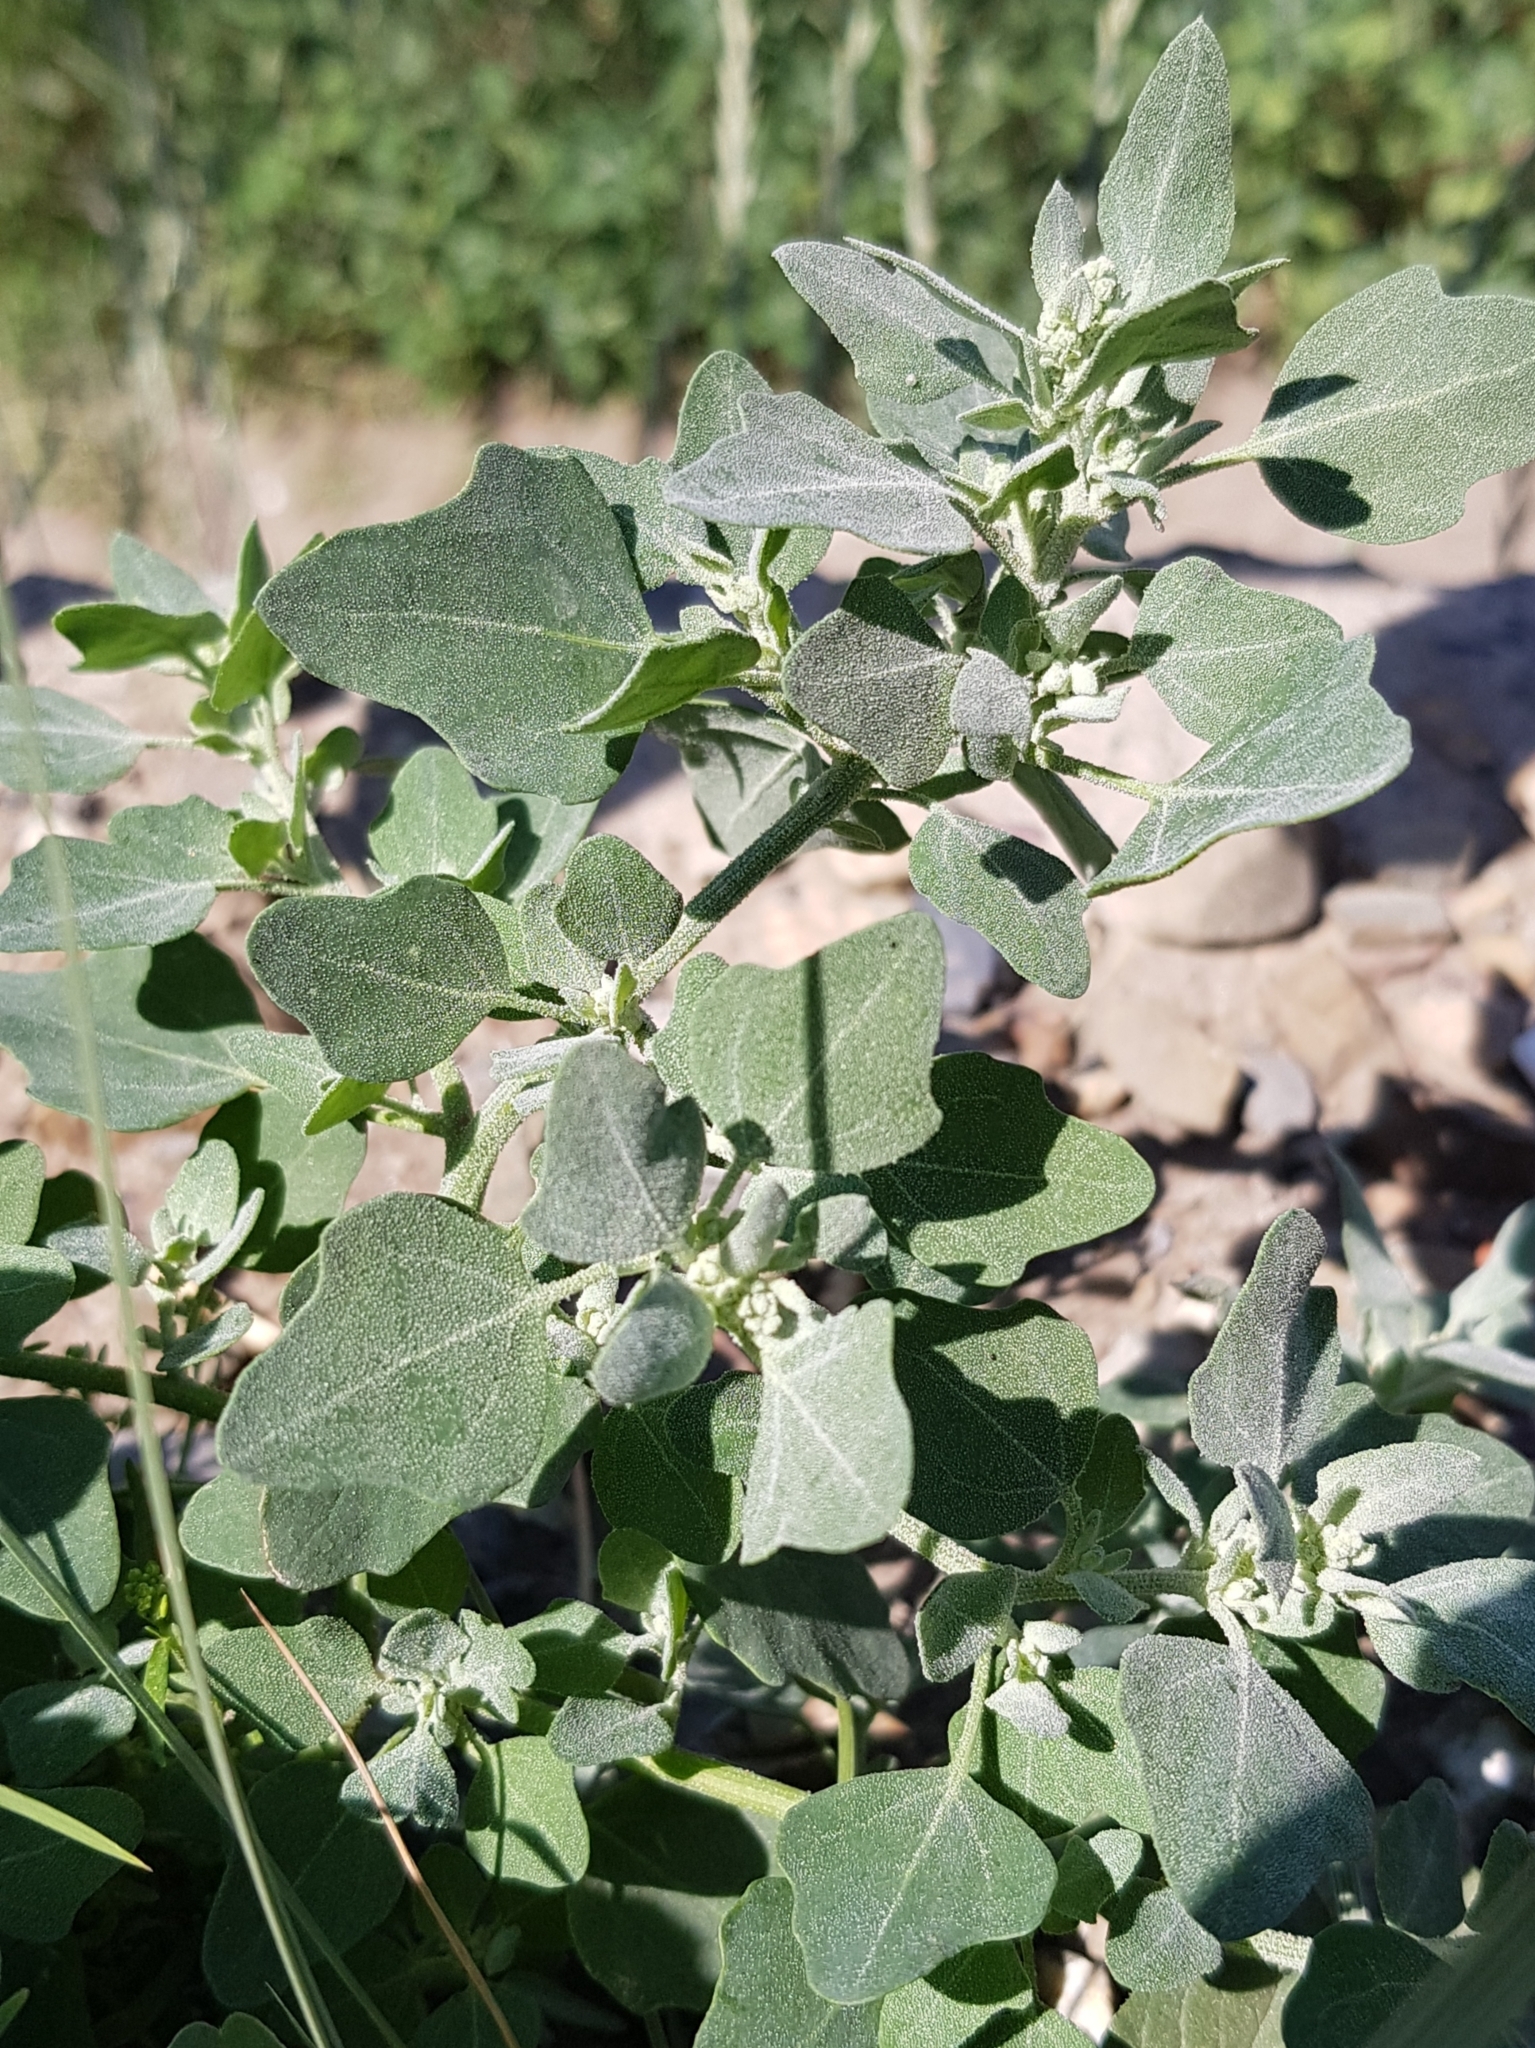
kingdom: Plantae
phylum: Tracheophyta
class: Magnoliopsida
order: Caryophyllales
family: Amaranthaceae
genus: Chenopodium
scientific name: Chenopodium karoi
